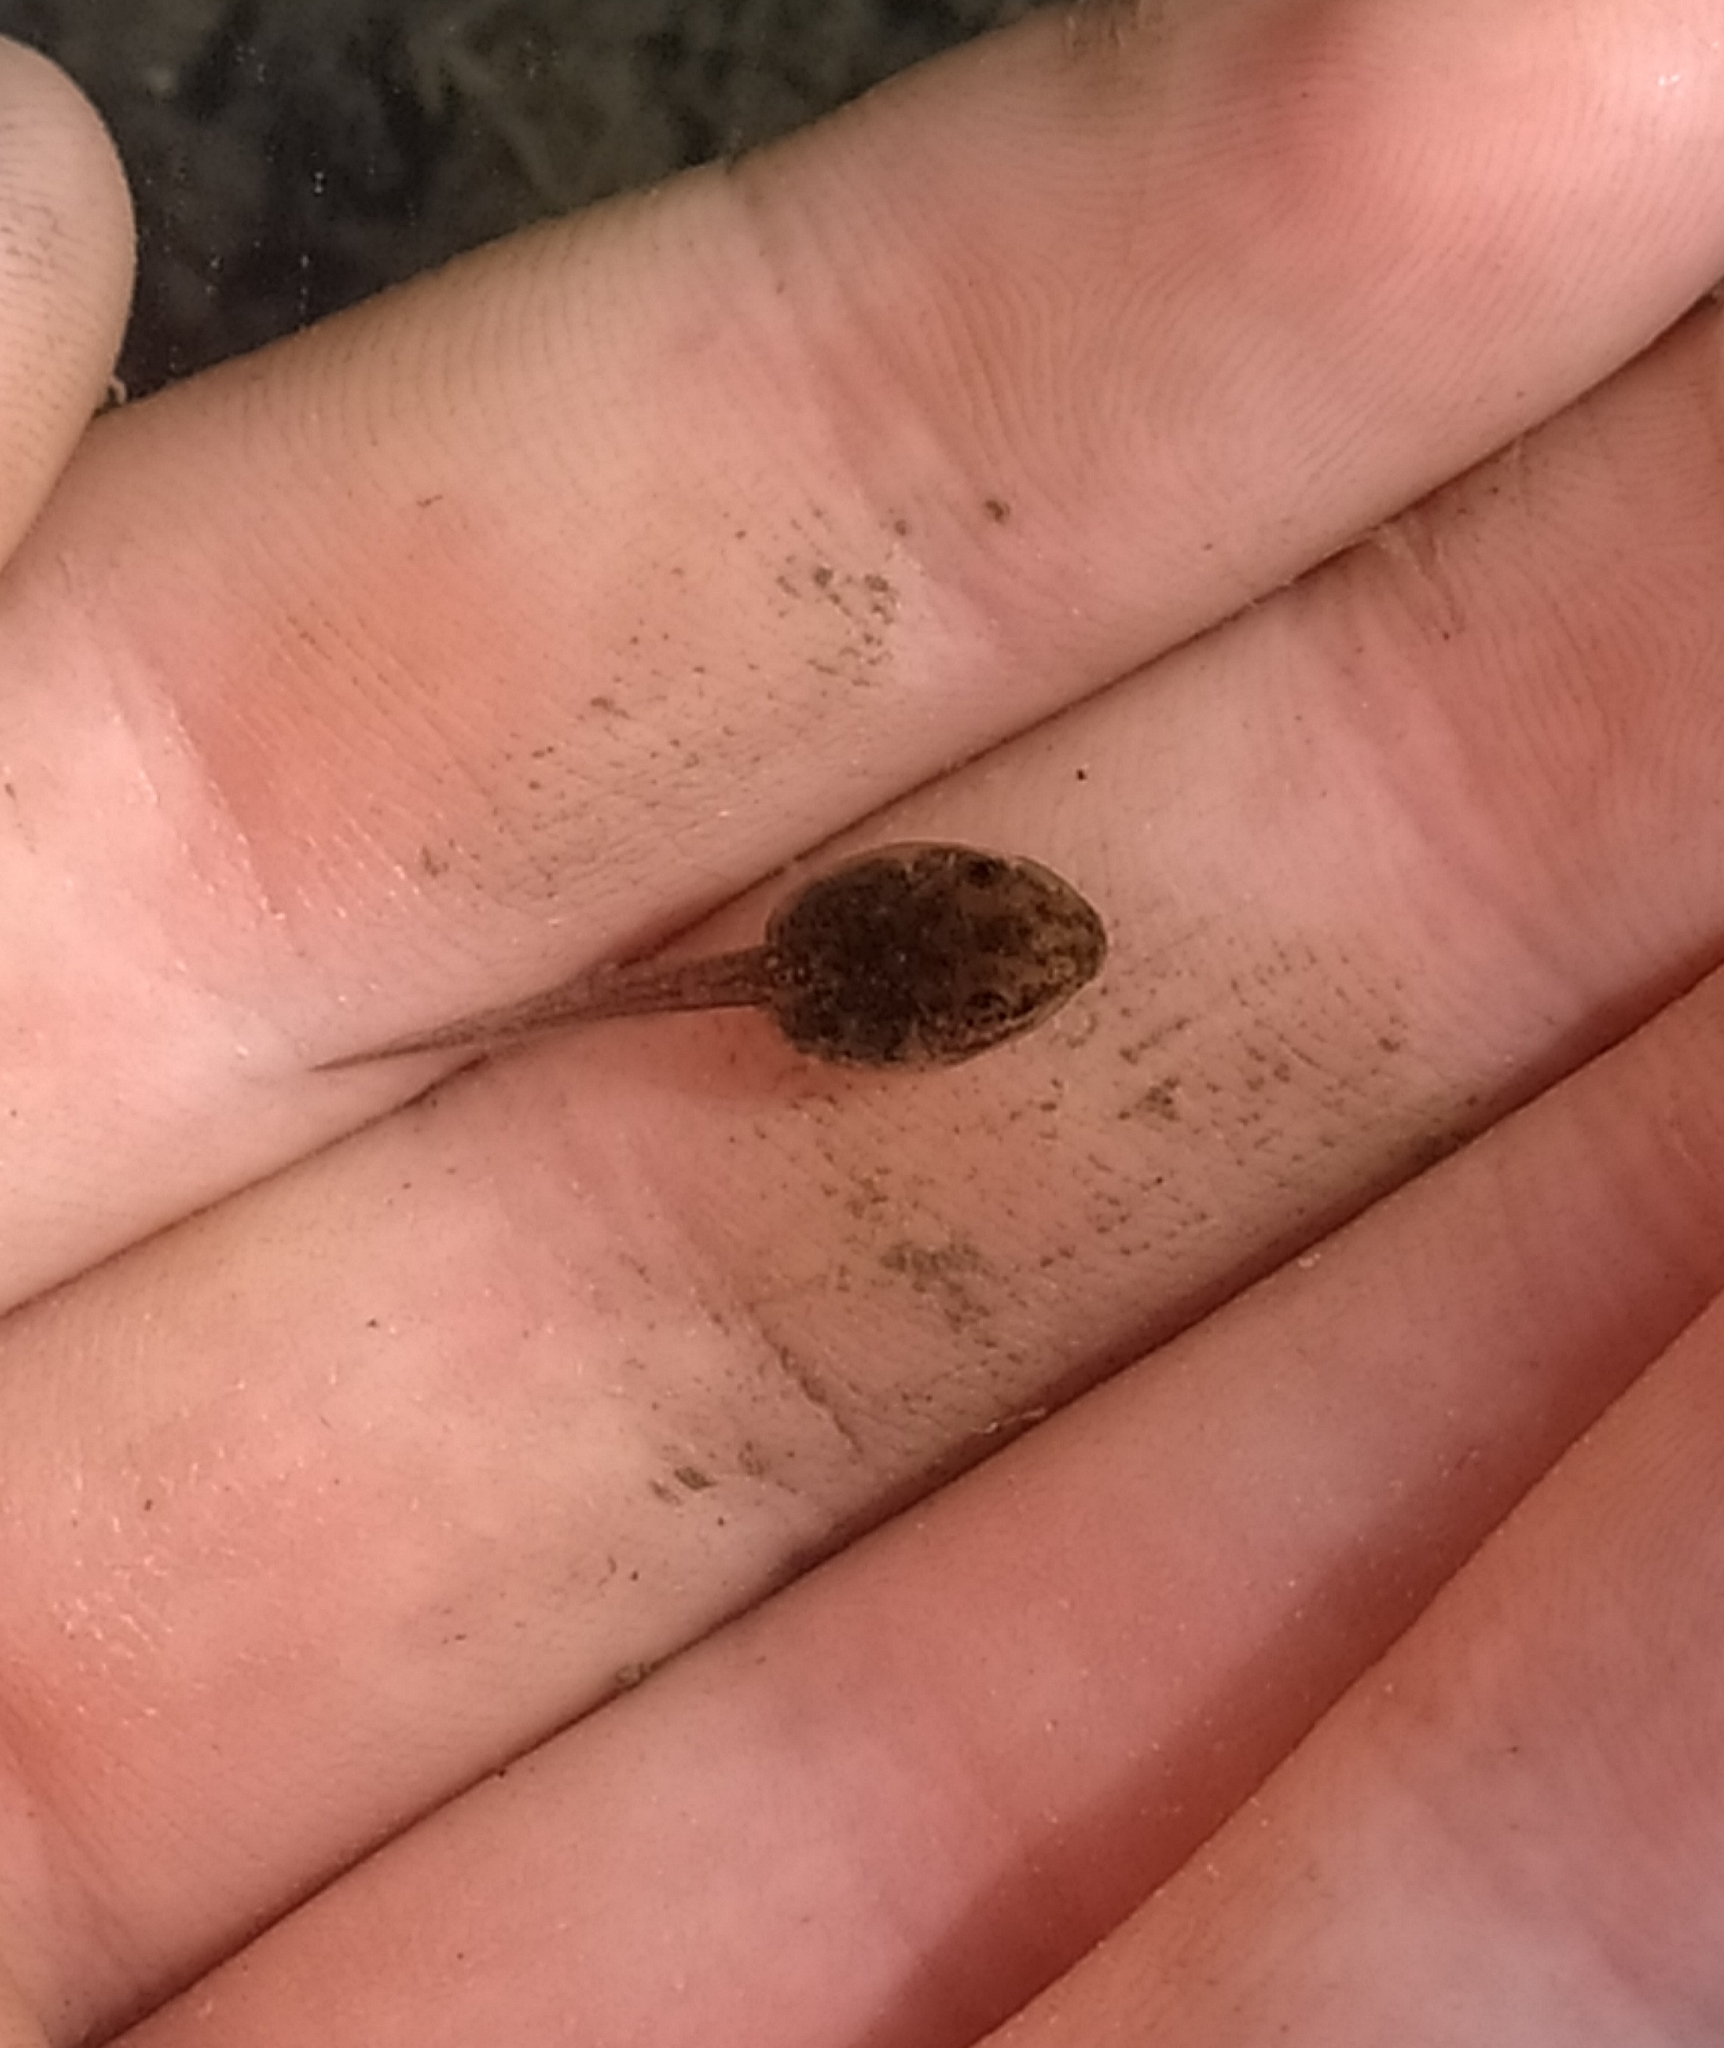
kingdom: Animalia
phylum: Chordata
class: Amphibia
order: Anura
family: Ranidae
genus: Pelophylax
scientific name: Pelophylax
